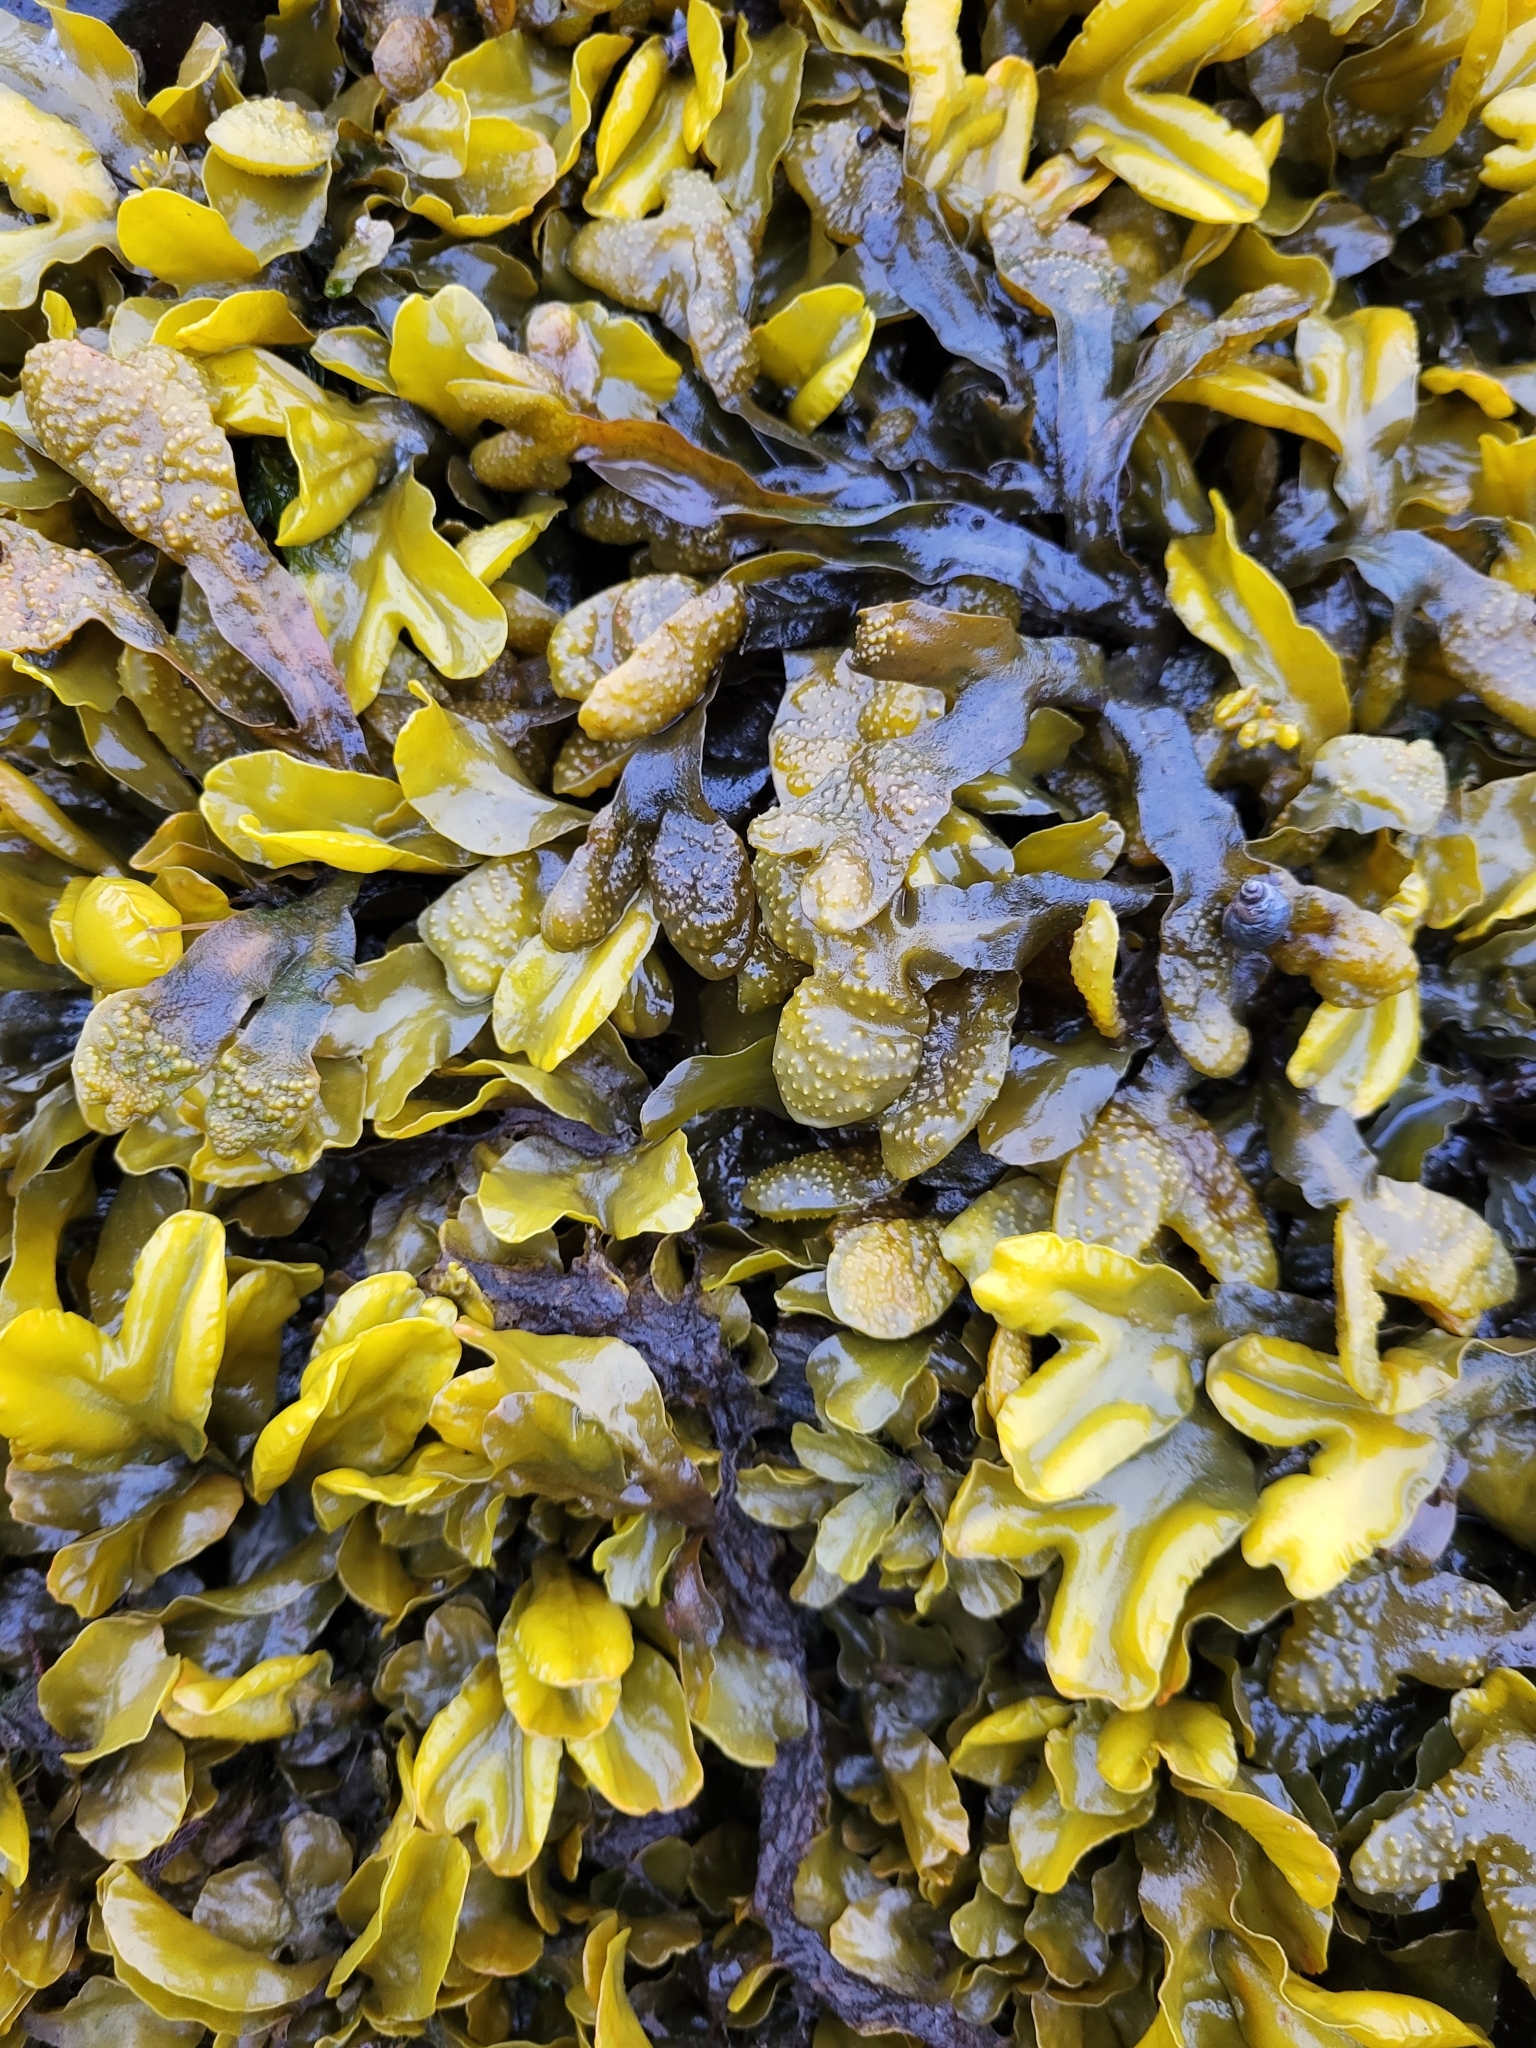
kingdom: Chromista
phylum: Ochrophyta
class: Phaeophyceae
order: Fucales
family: Fucaceae
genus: Fucus
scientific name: Fucus distichus
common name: Rockweed
